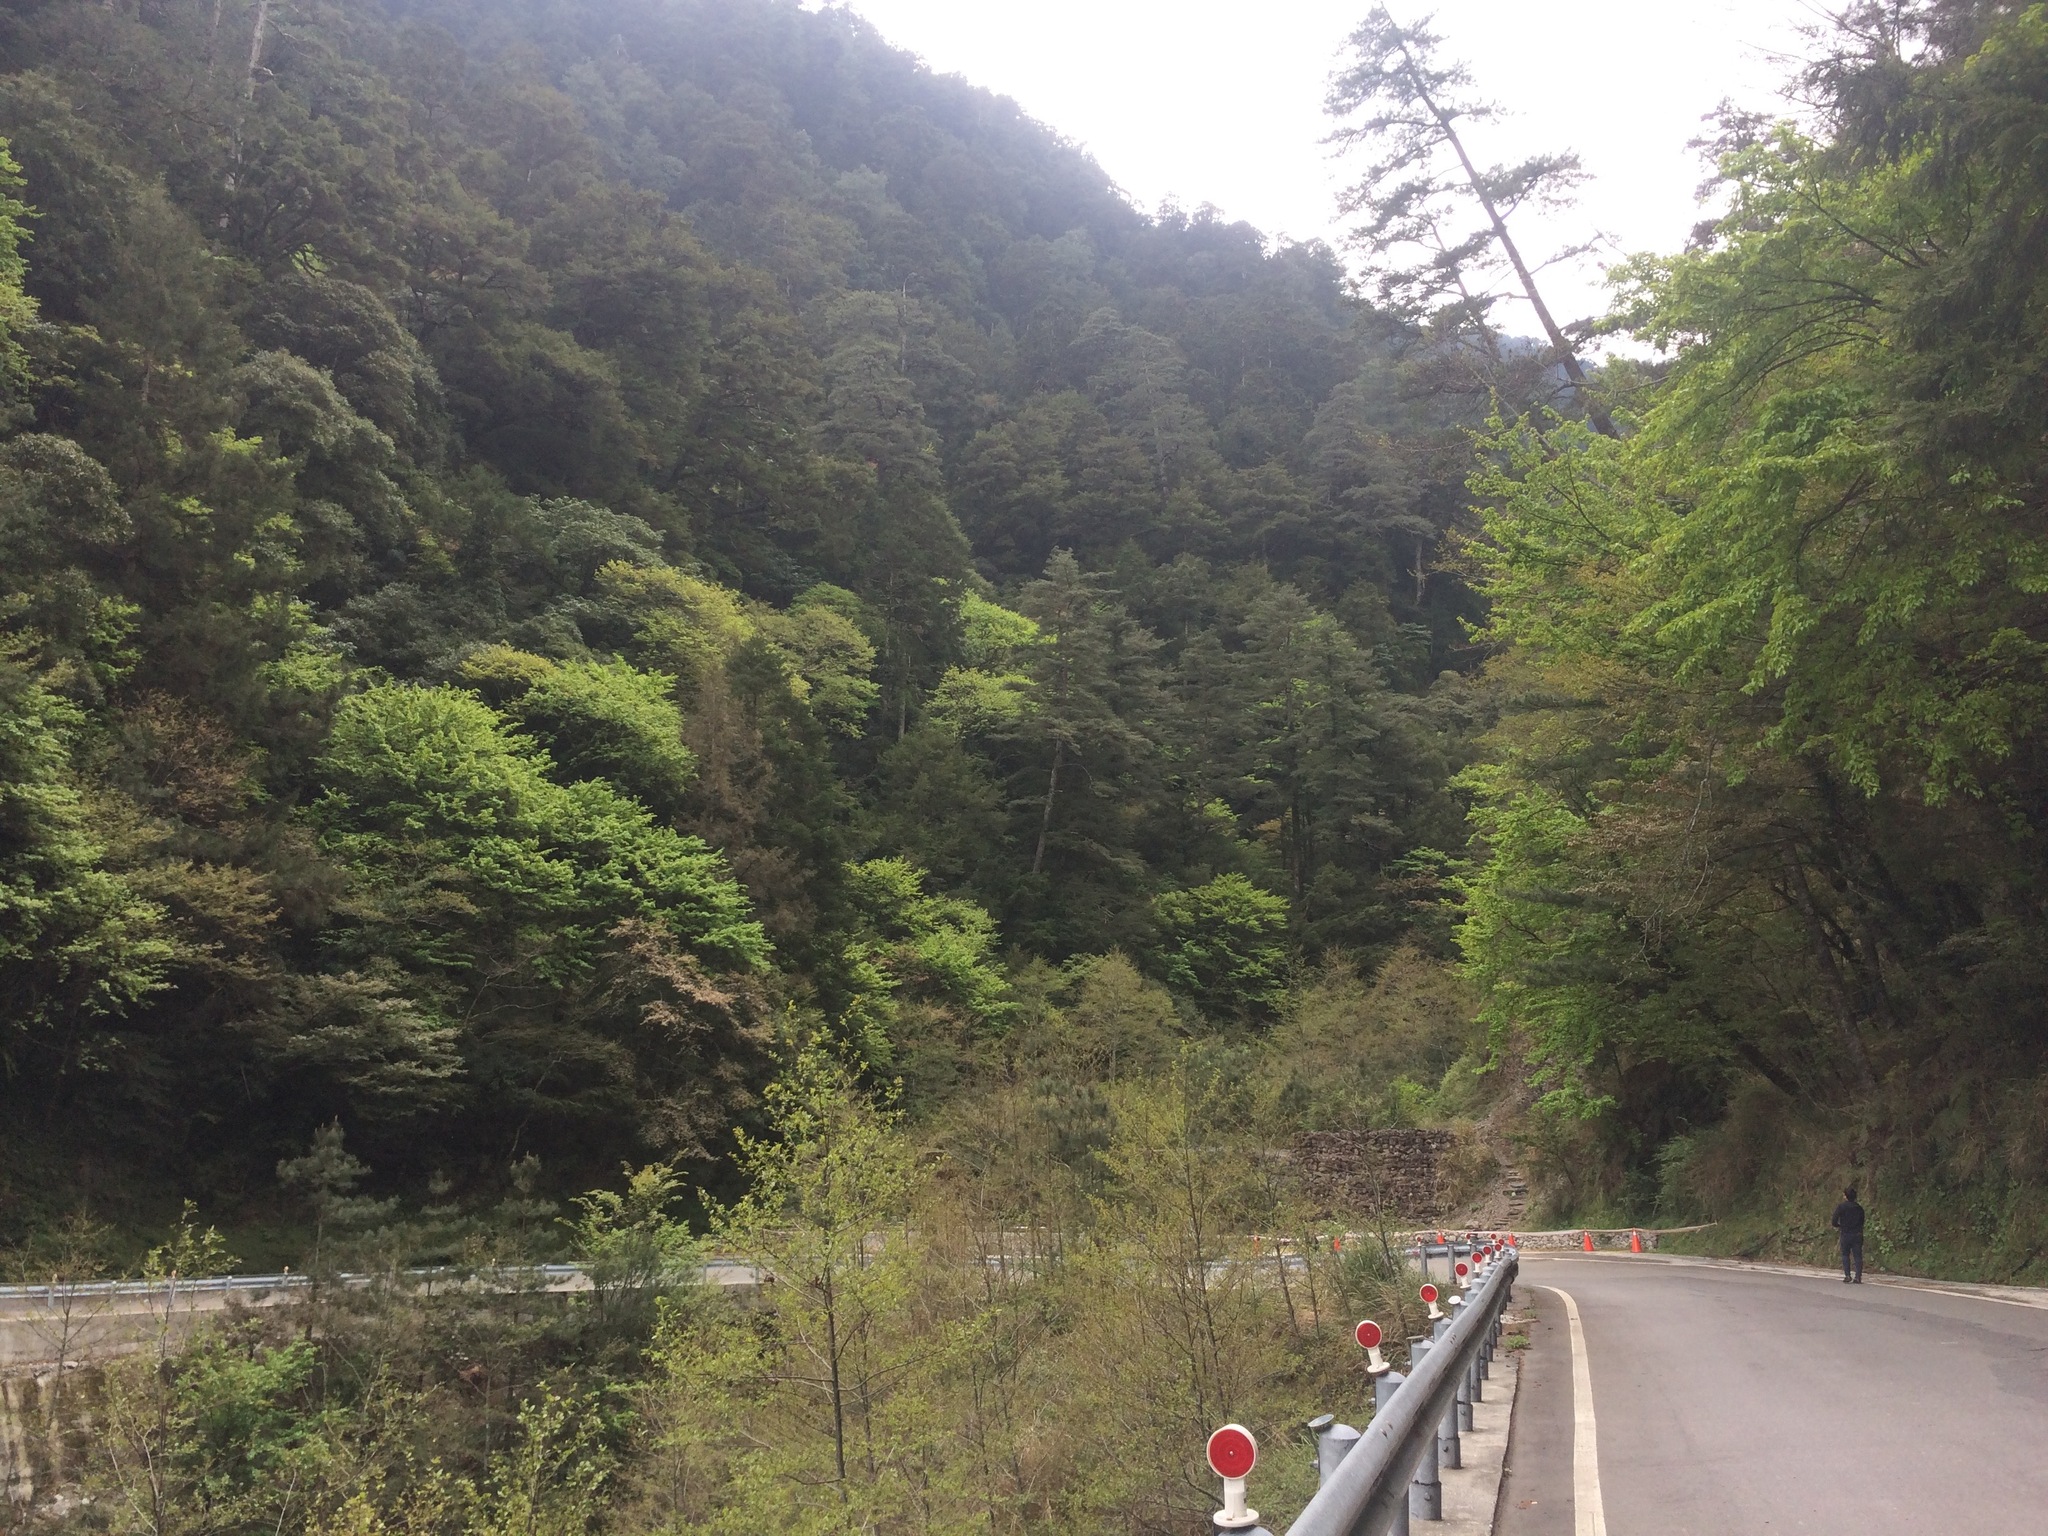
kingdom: Plantae
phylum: Tracheophyta
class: Magnoliopsida
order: Rosales
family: Rosaceae
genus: Prunus
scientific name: Prunus itosakura
